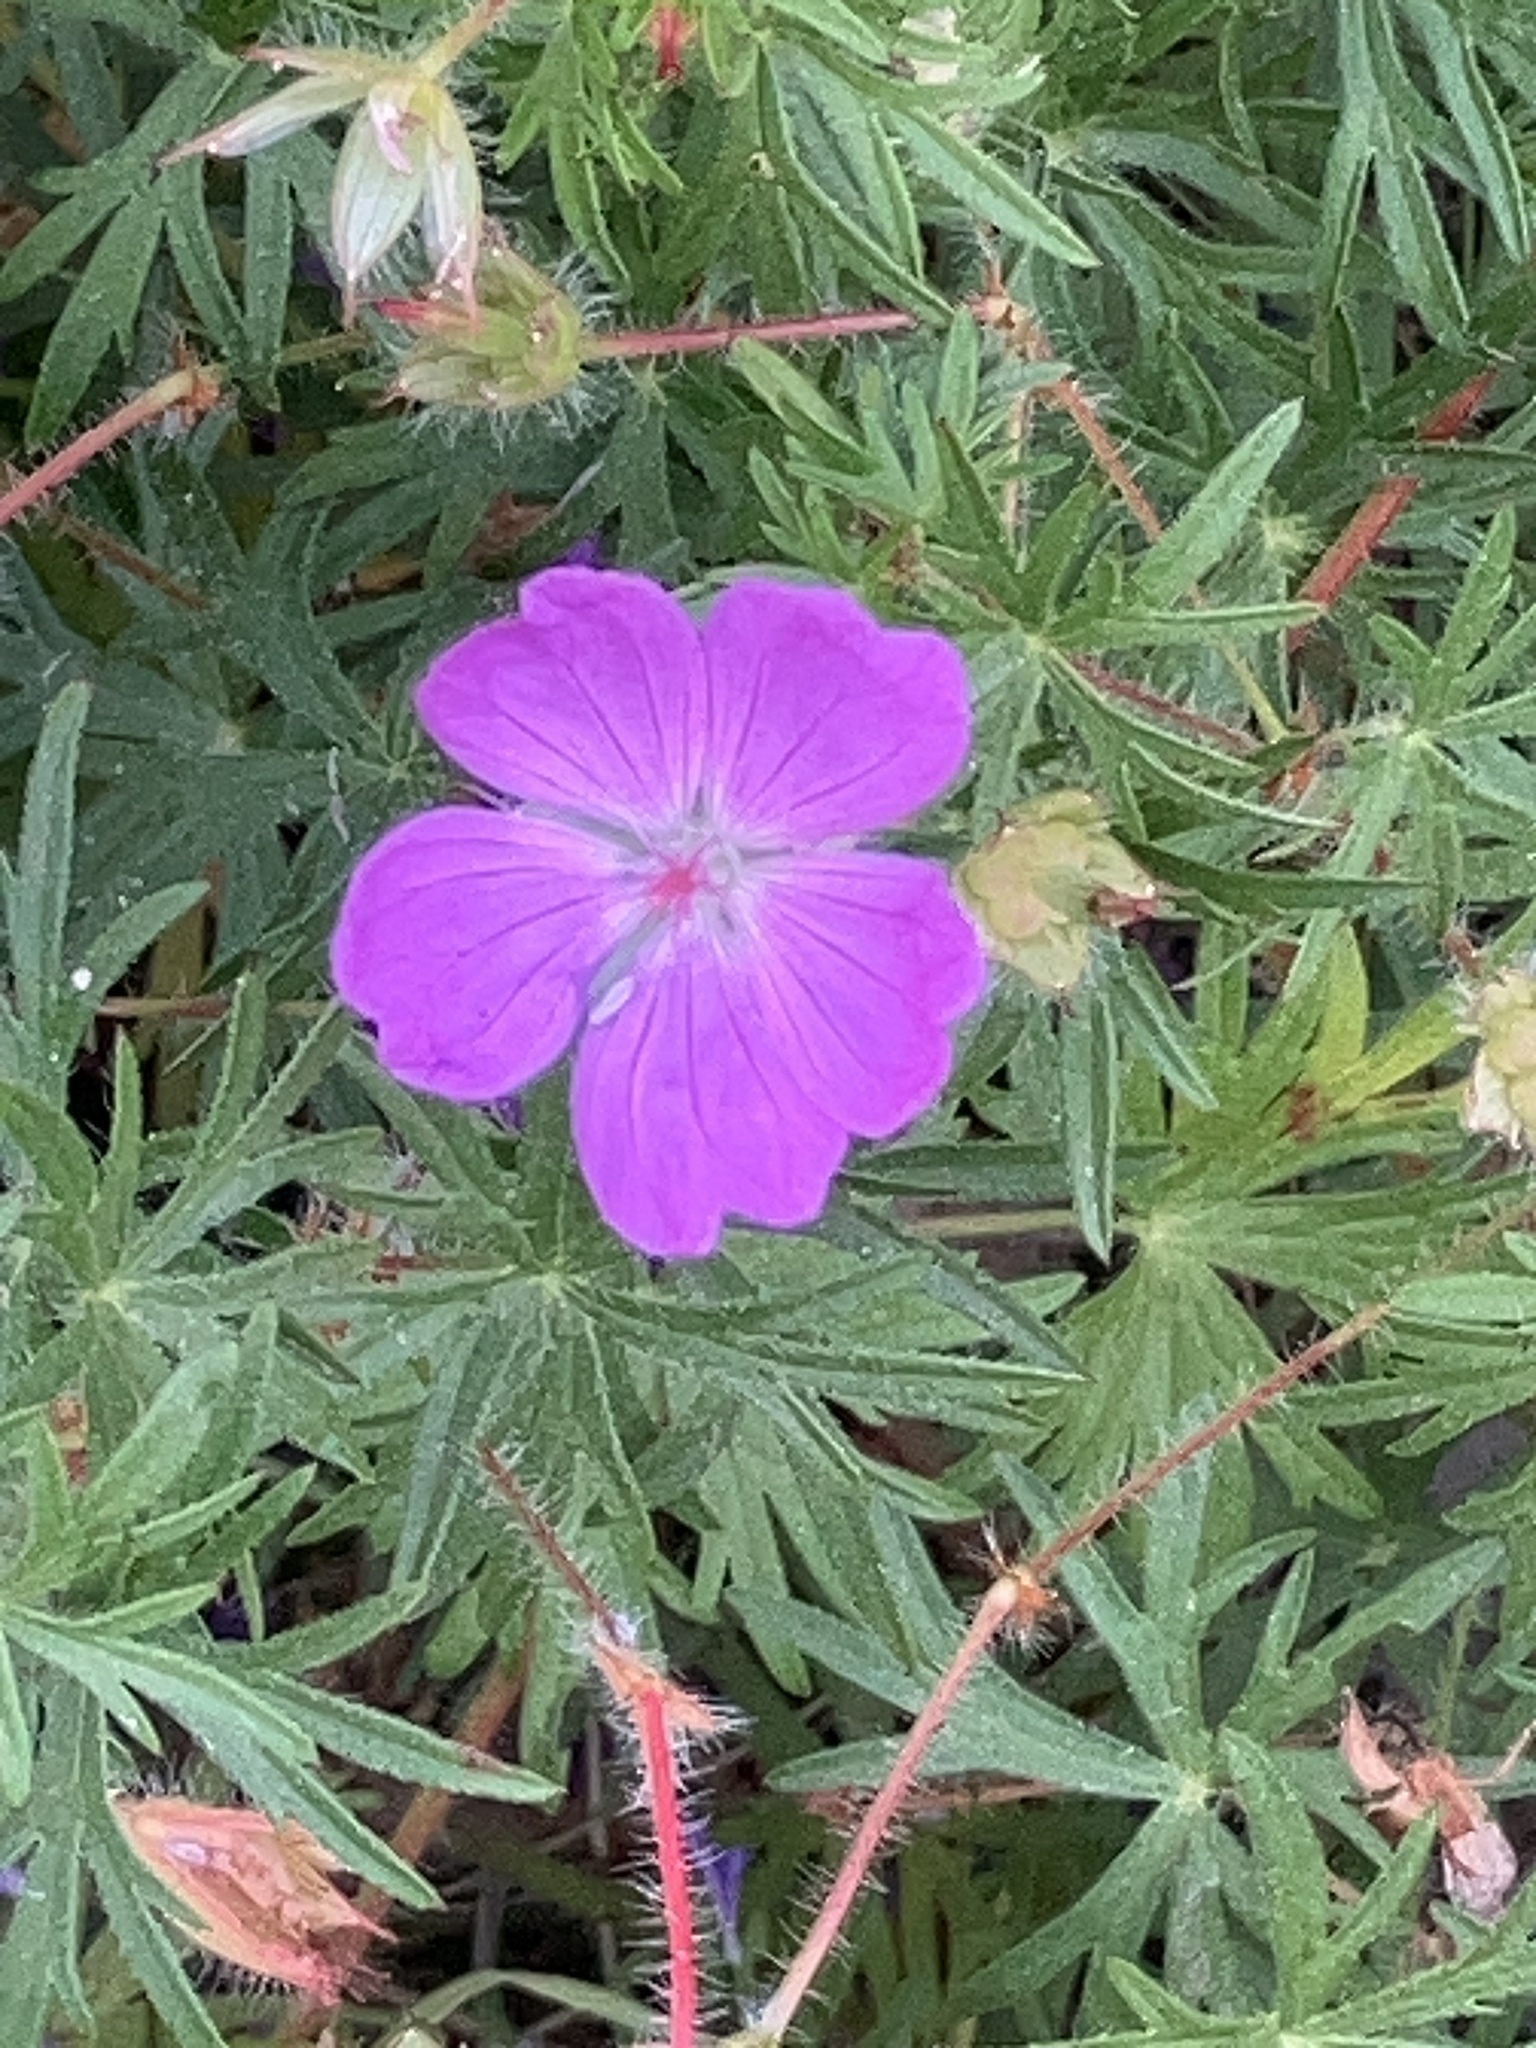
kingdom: Plantae
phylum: Tracheophyta
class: Magnoliopsida
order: Geraniales
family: Geraniaceae
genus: Geranium
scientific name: Geranium sanguineum
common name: Bloody crane's-bill
